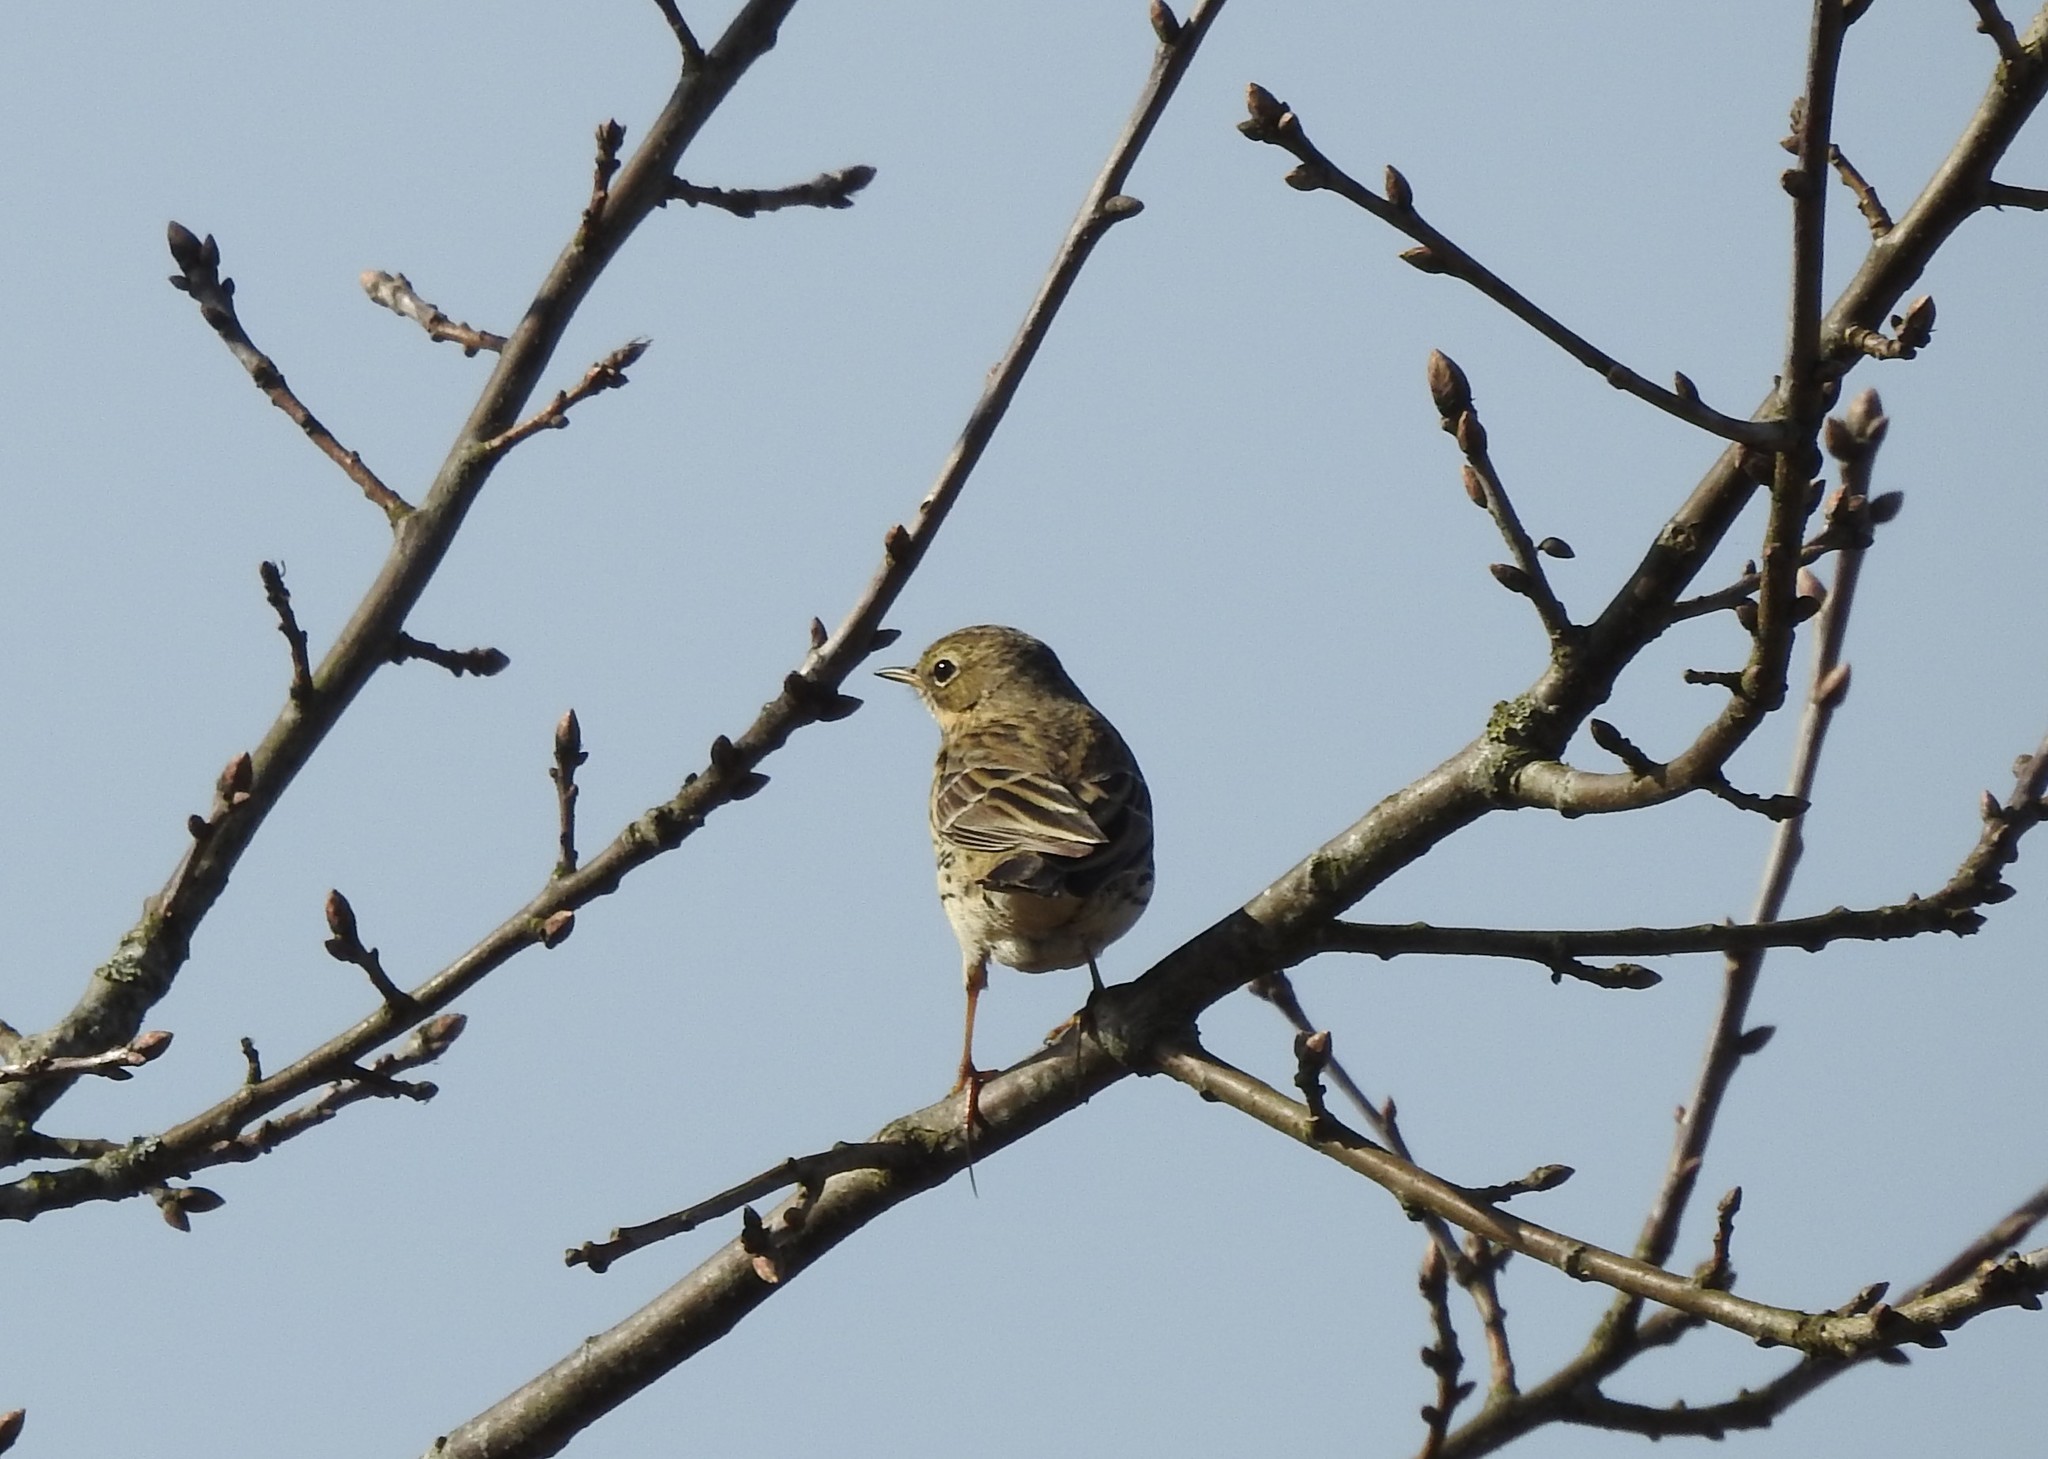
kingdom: Animalia
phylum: Chordata
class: Aves
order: Passeriformes
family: Motacillidae
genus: Anthus
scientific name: Anthus pratensis
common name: Meadow pipit
